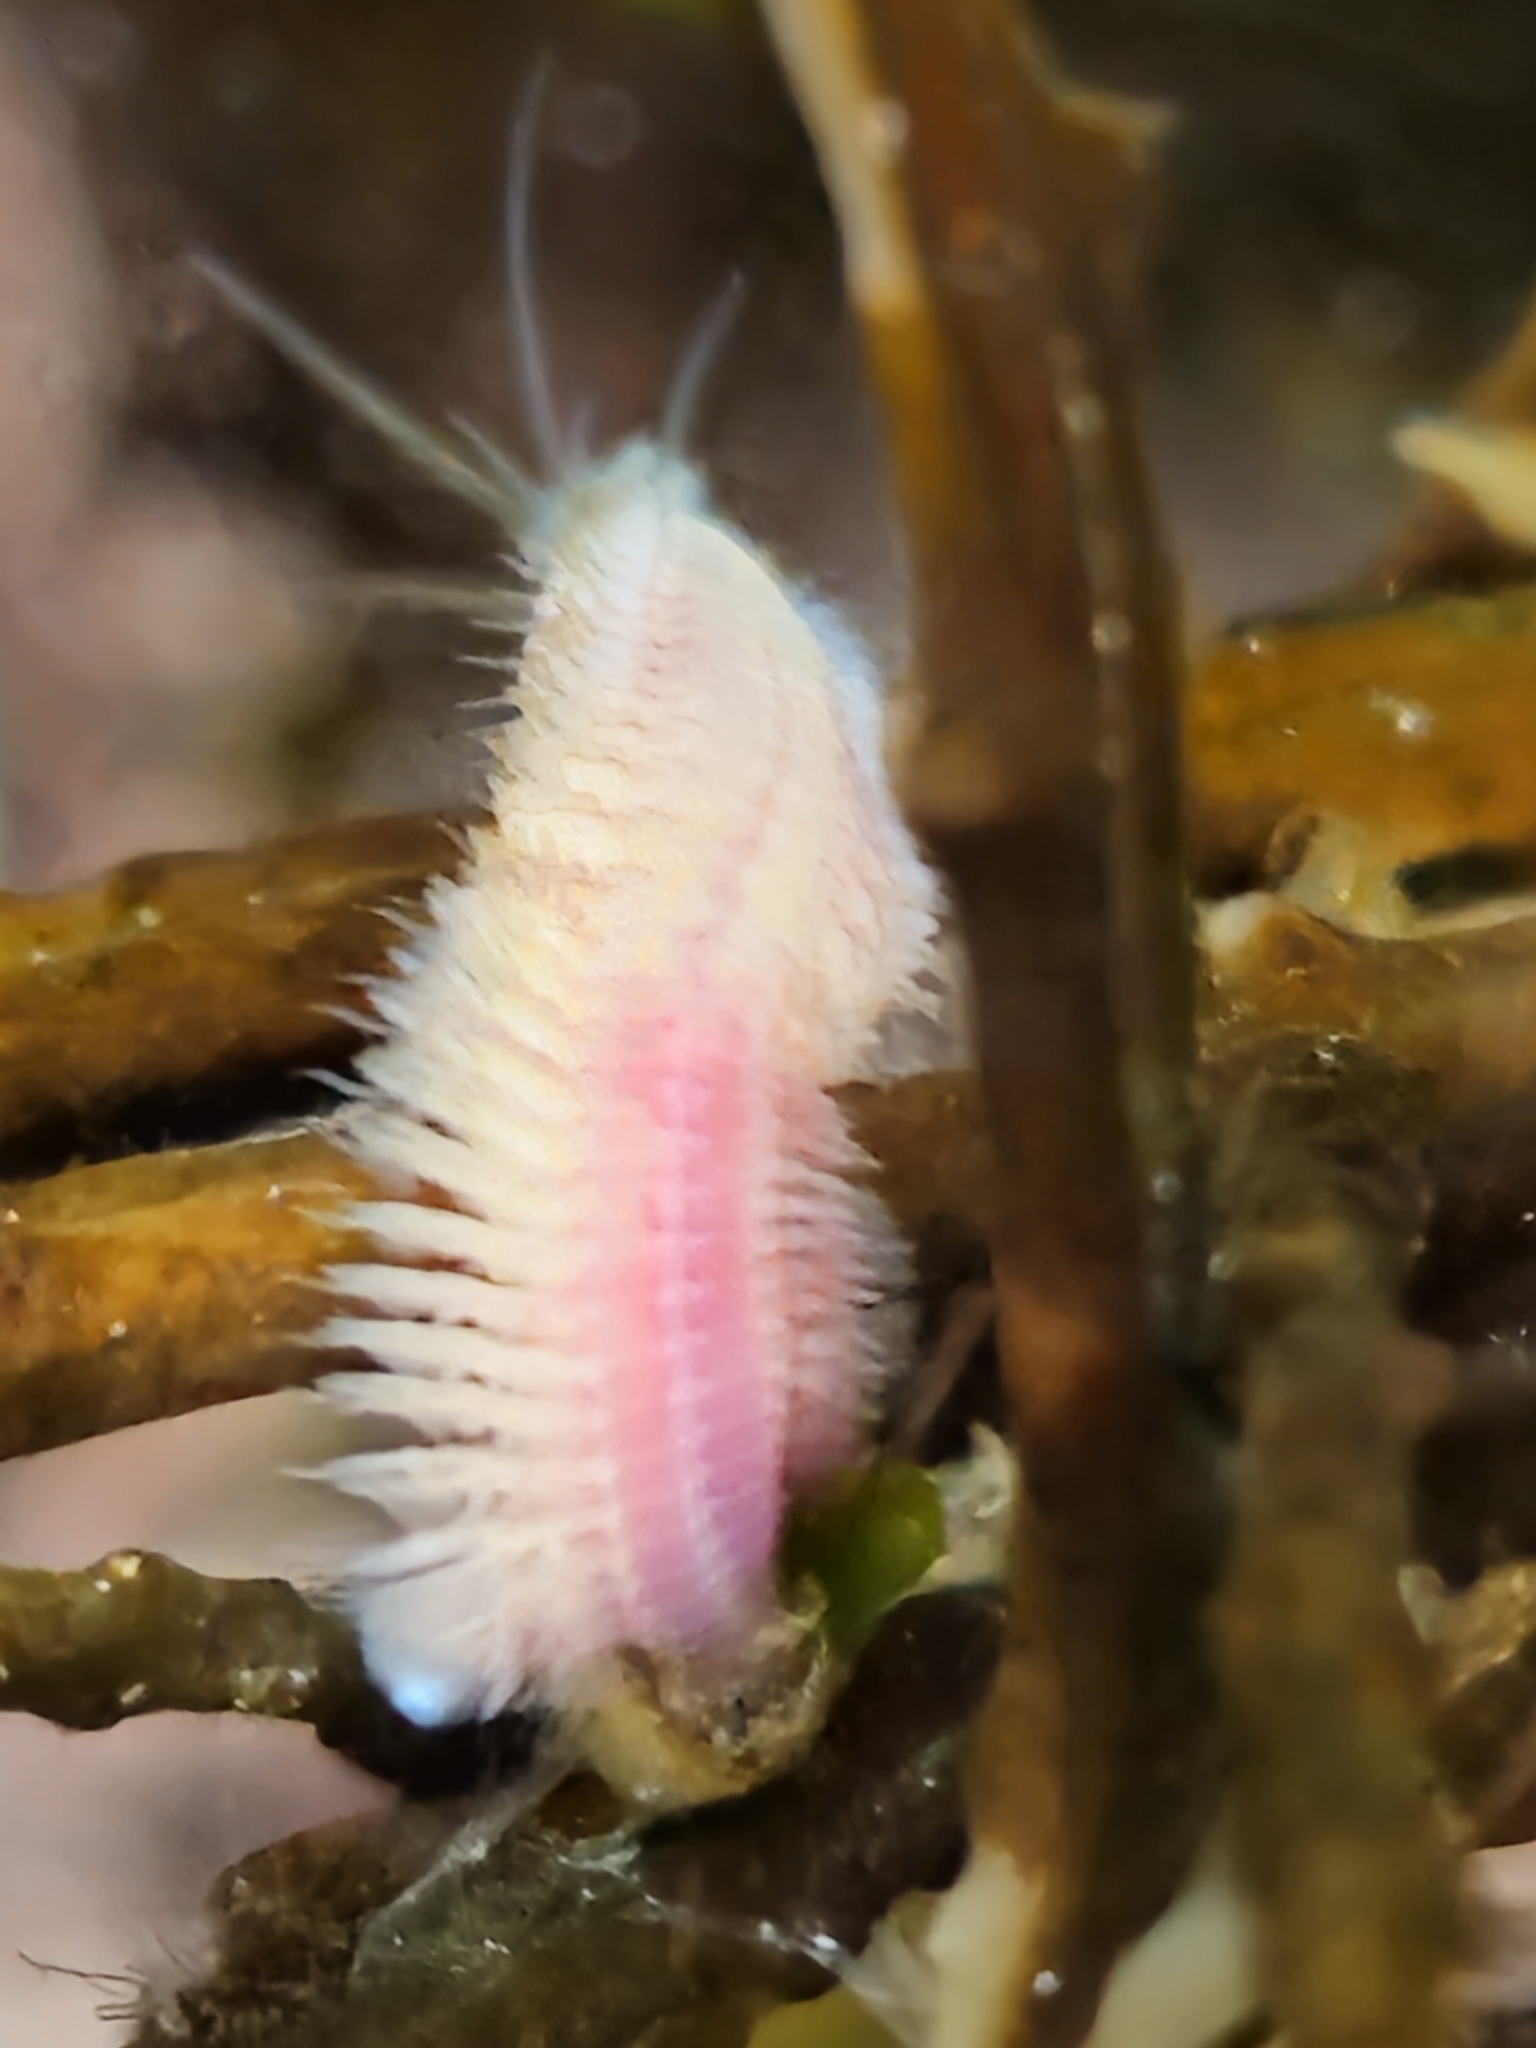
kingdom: Animalia
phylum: Annelida
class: Polychaeta
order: Phyllodocida
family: Nereididae
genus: Platynereis
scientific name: Platynereis bicanaliculata
